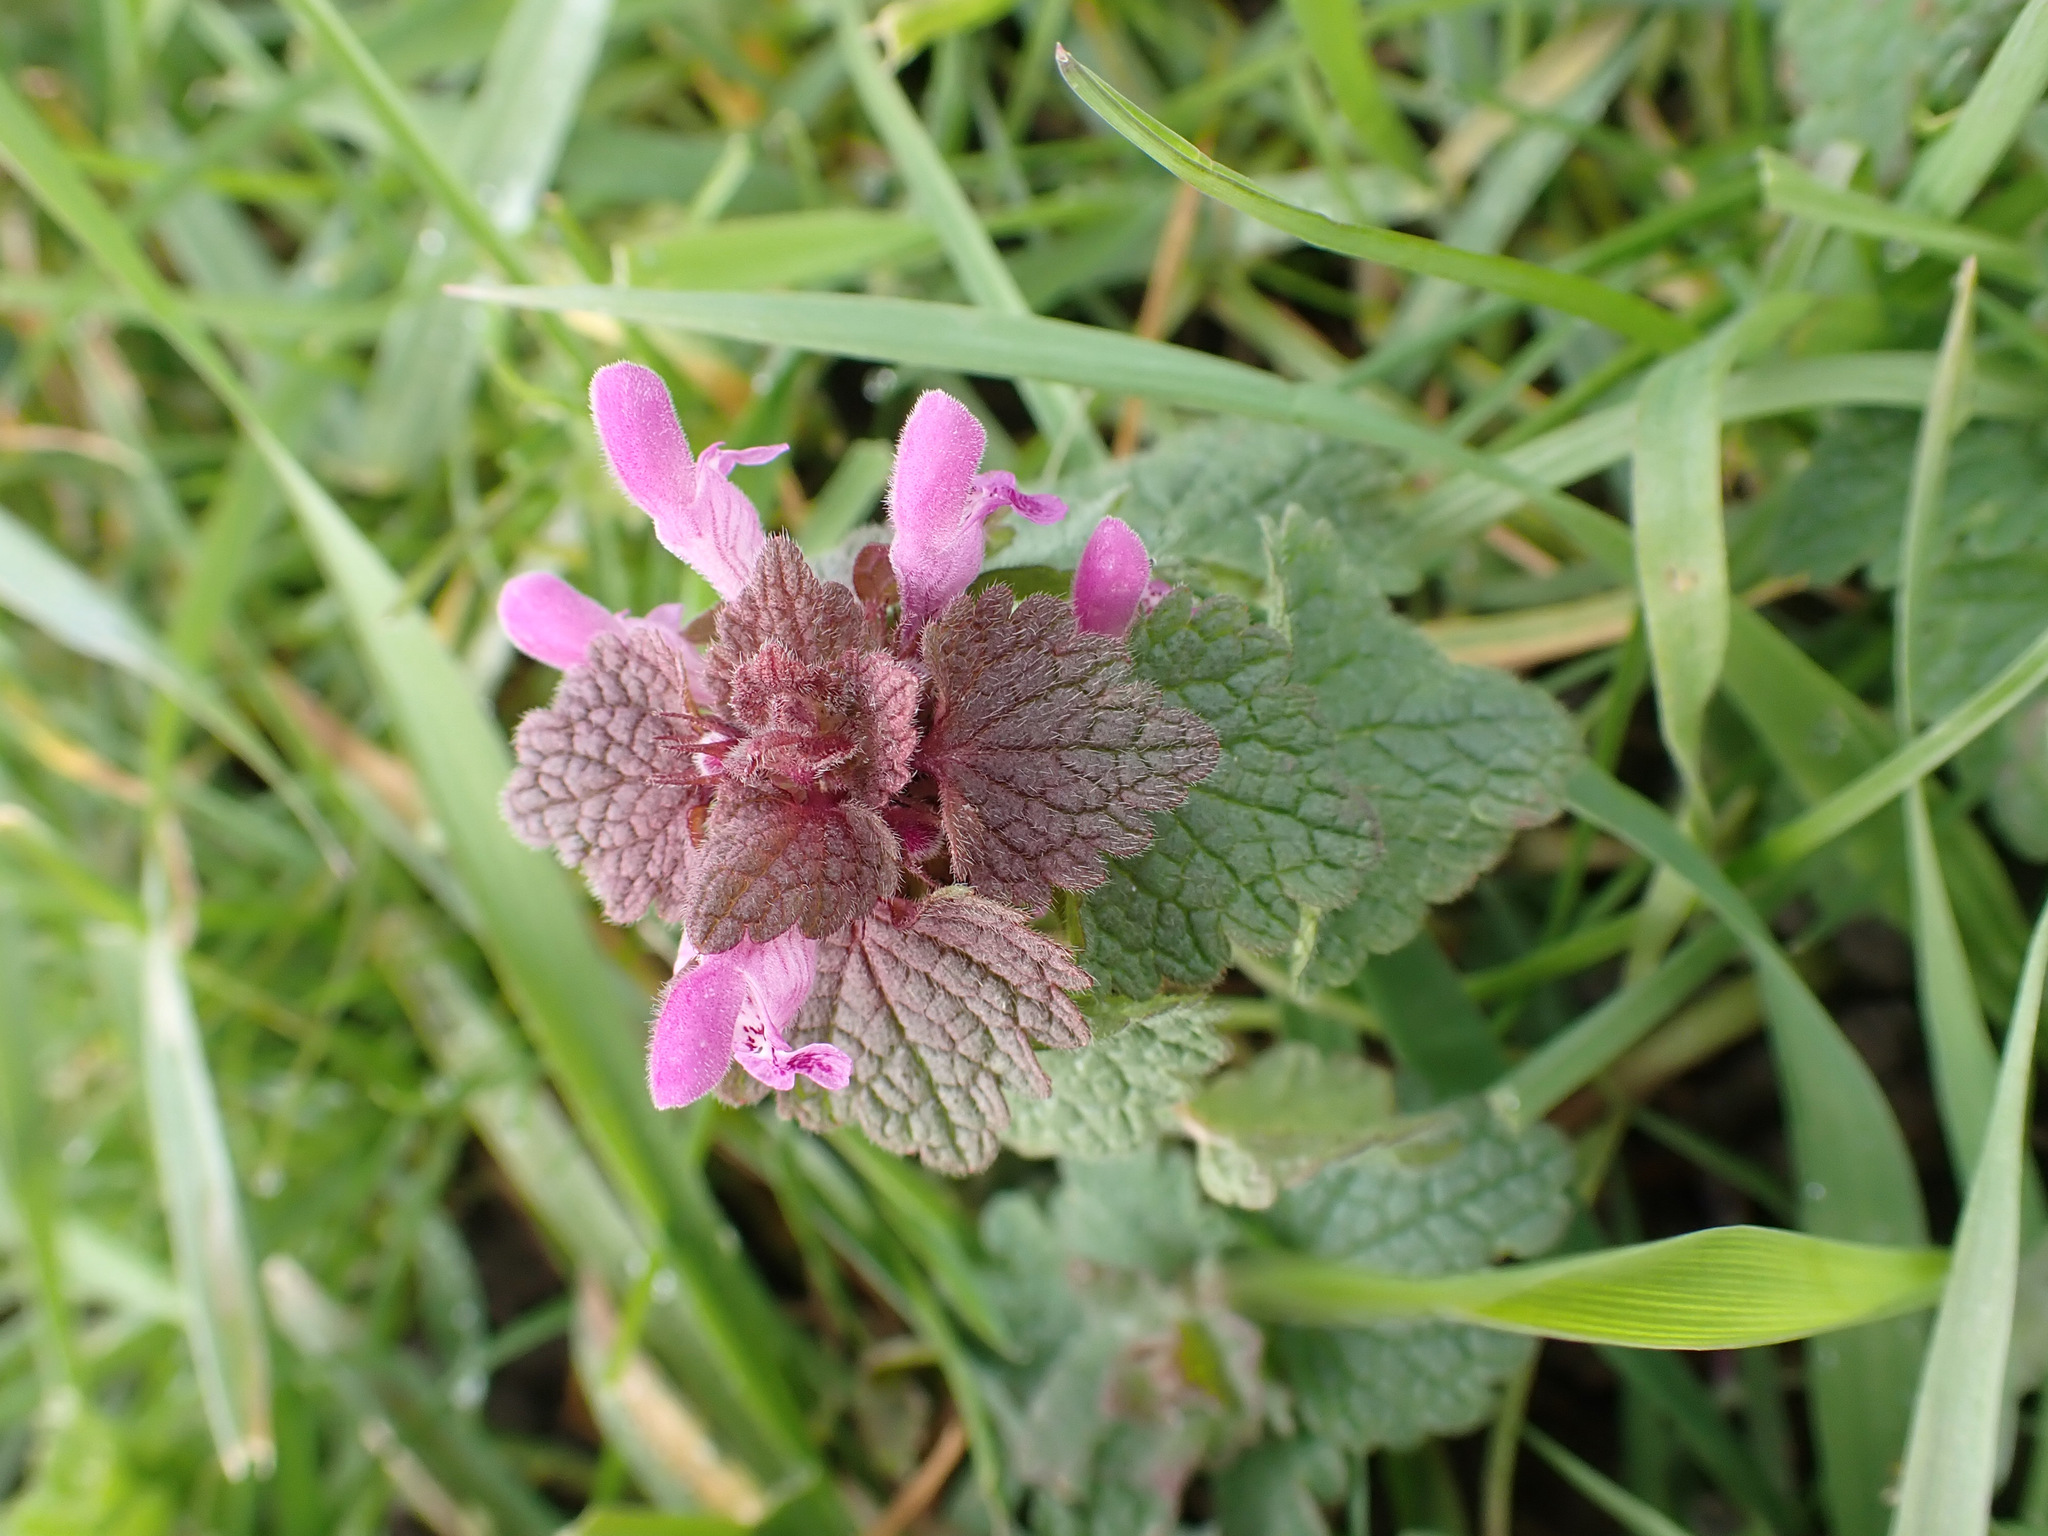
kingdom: Plantae
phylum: Tracheophyta
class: Magnoliopsida
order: Lamiales
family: Lamiaceae
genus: Lamium
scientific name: Lamium purpureum
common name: Red dead-nettle
